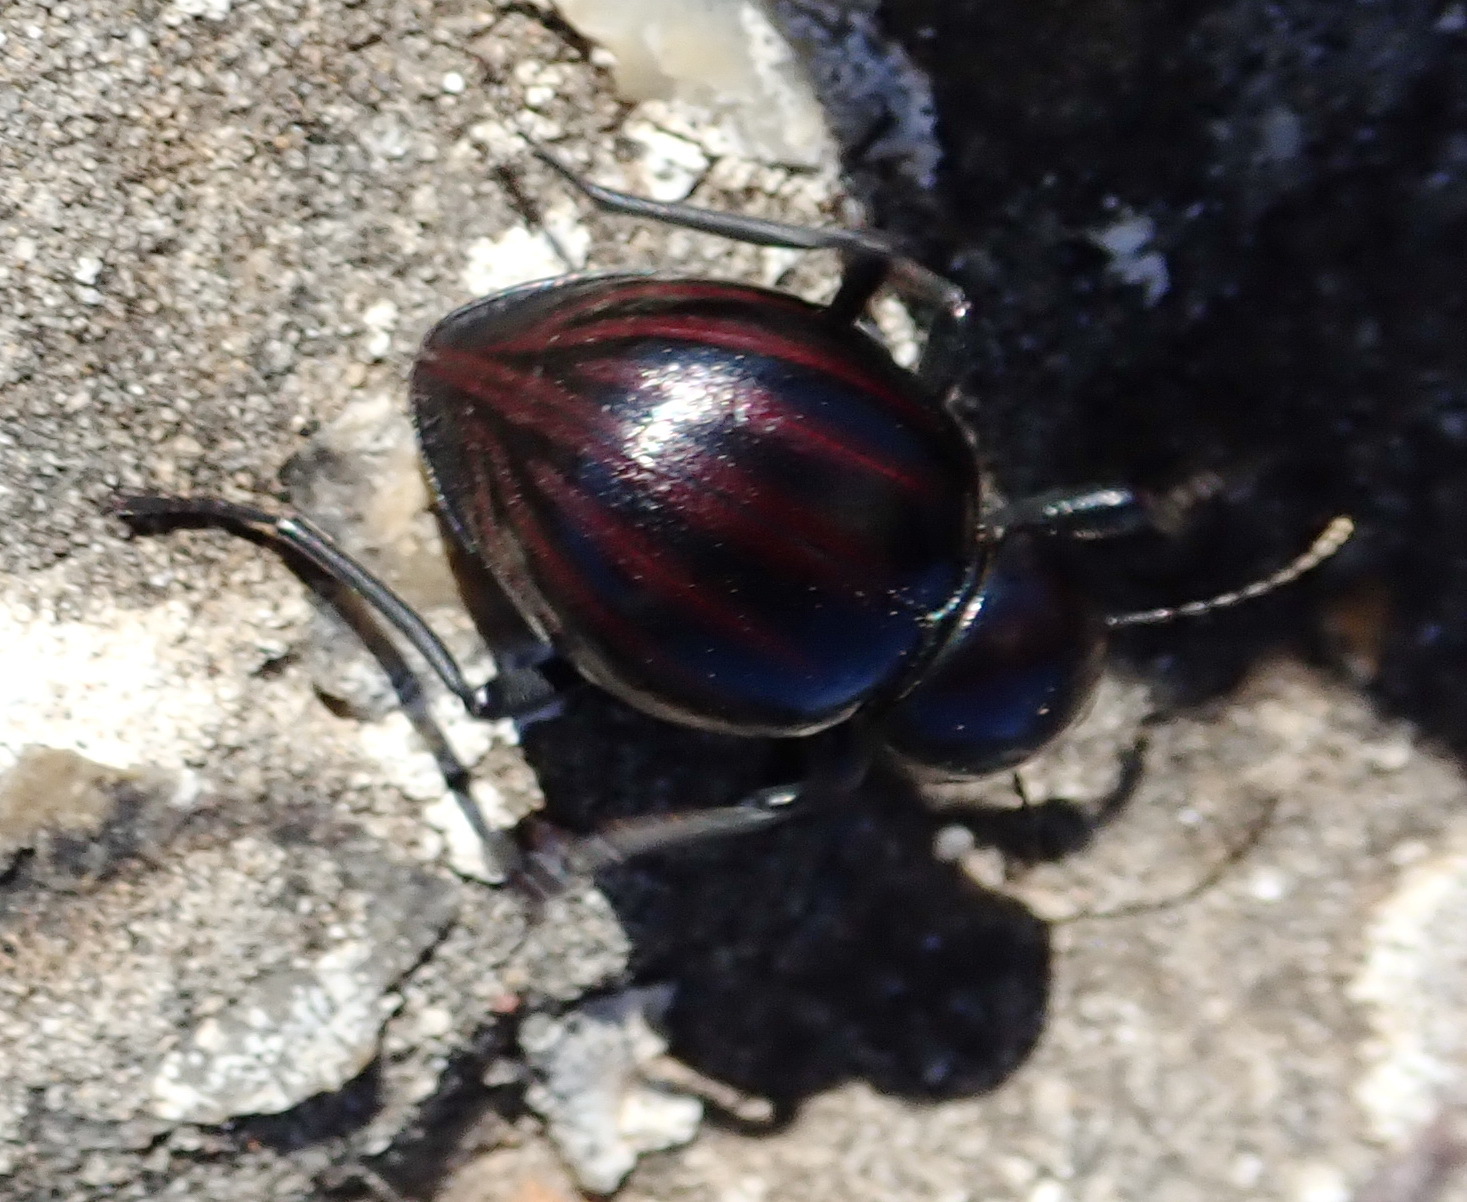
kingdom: Animalia
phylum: Arthropoda
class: Insecta
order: Coleoptera
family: Tenebrionidae
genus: Mariazofia
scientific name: Mariazofia
